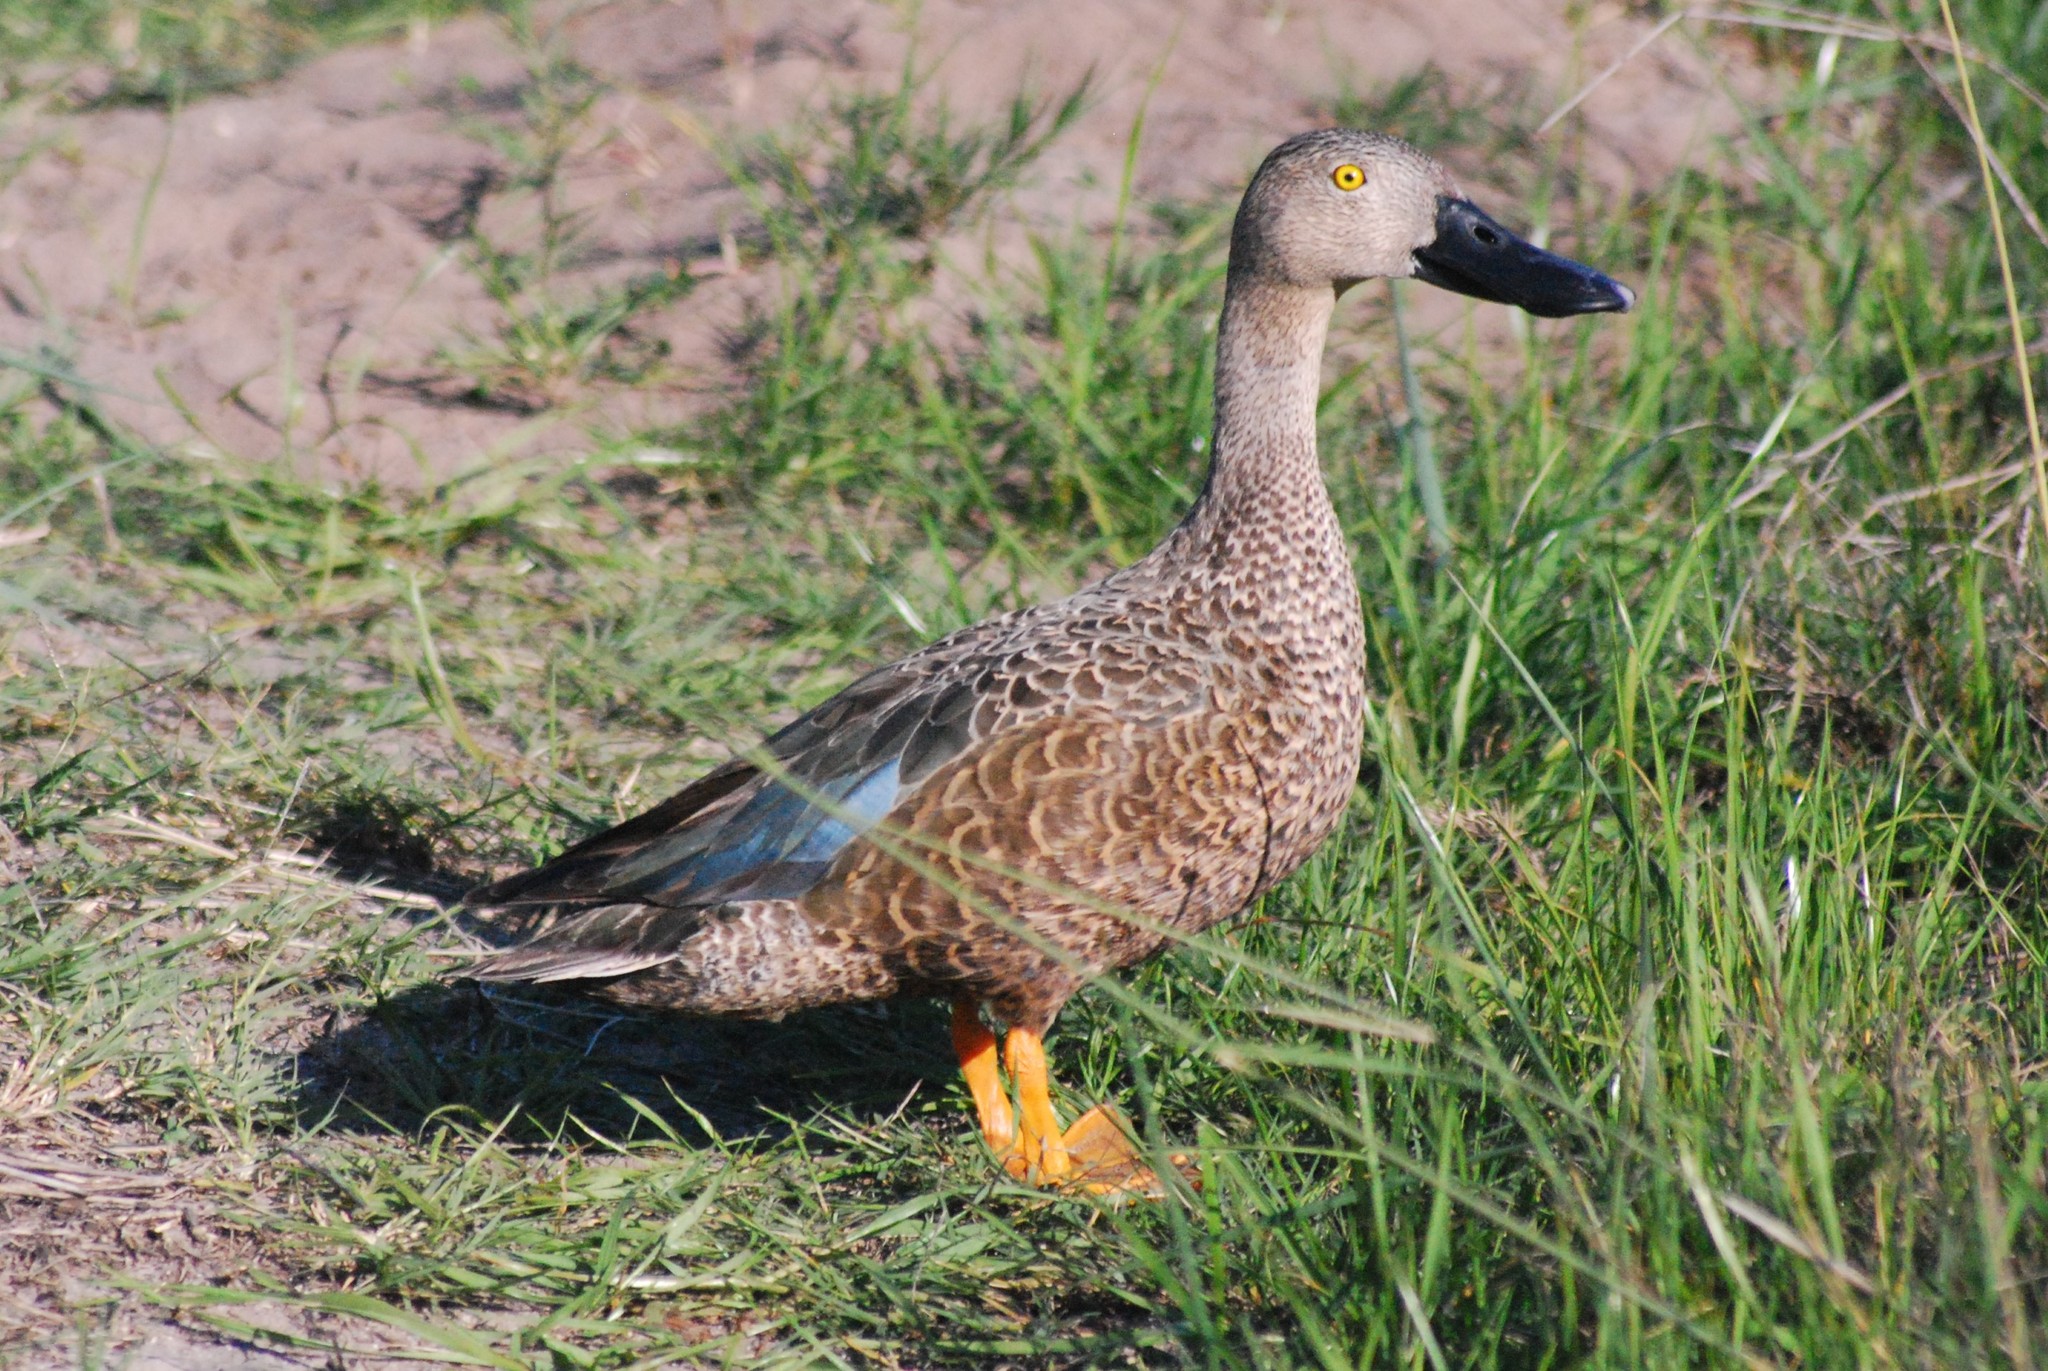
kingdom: Animalia
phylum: Chordata
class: Aves
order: Anseriformes
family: Anatidae
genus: Spatula
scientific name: Spatula smithii
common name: Cape shoveler
